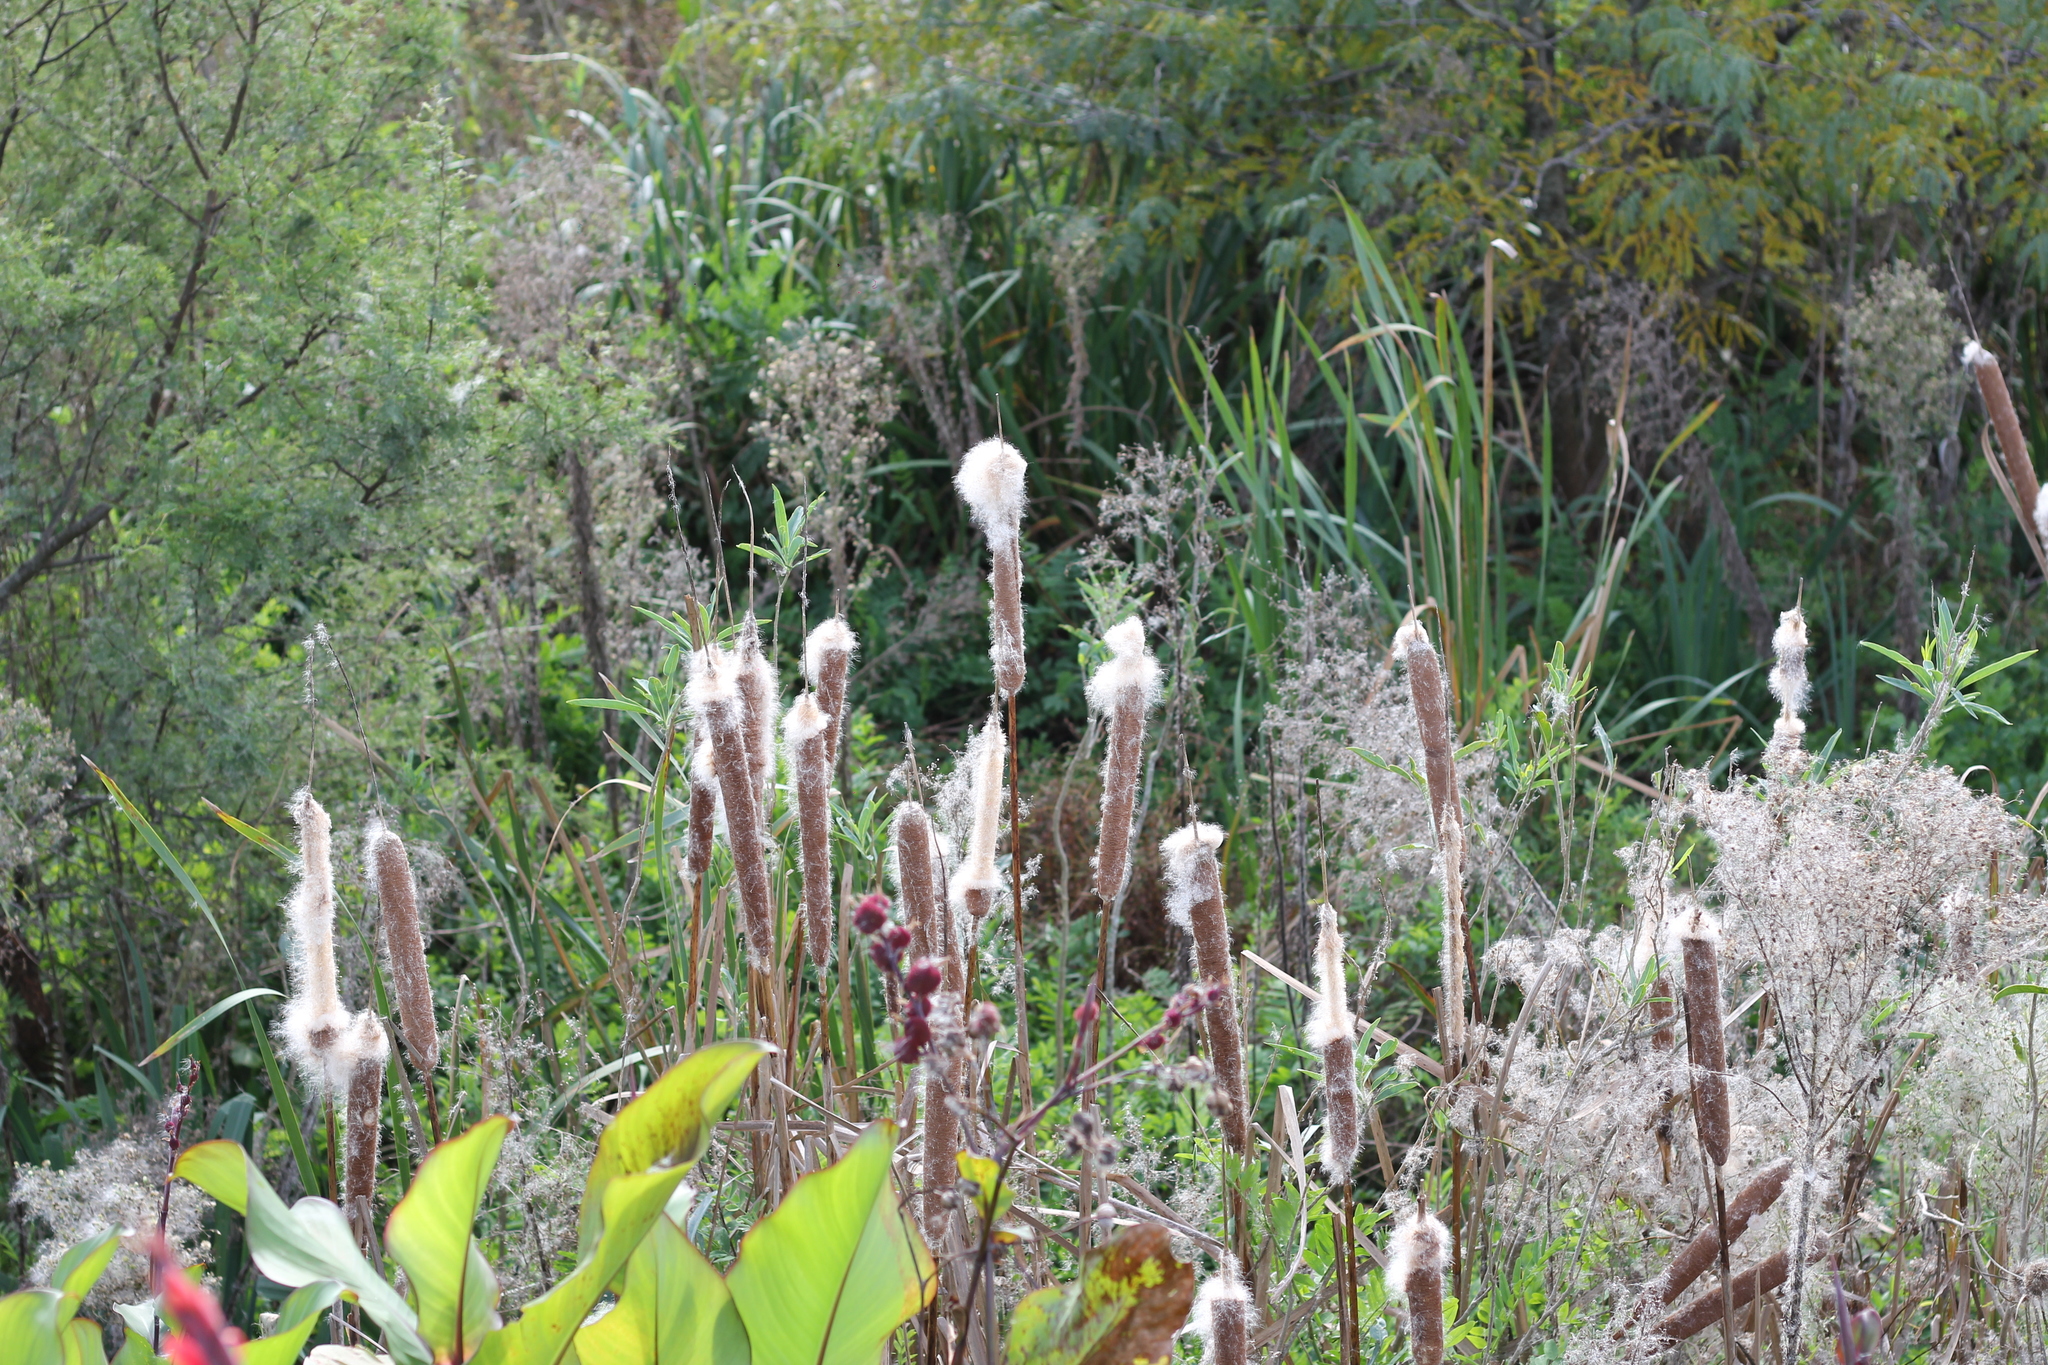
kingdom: Plantae
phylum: Tracheophyta
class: Liliopsida
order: Poales
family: Typhaceae
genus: Typha
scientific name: Typha latifolia
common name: Broadleaf cattail
